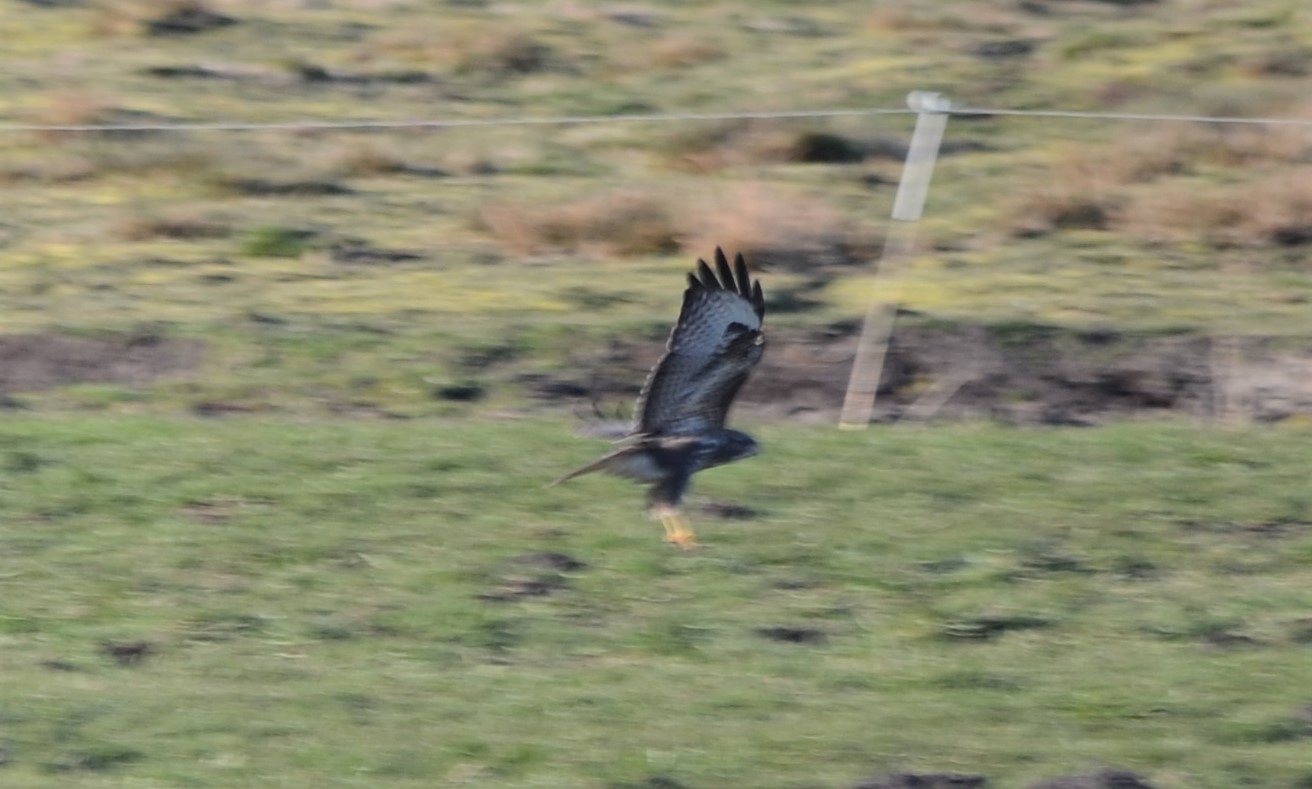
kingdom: Animalia
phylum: Chordata
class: Aves
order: Accipitriformes
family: Accipitridae
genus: Buteo
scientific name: Buteo buteo
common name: Common buzzard
